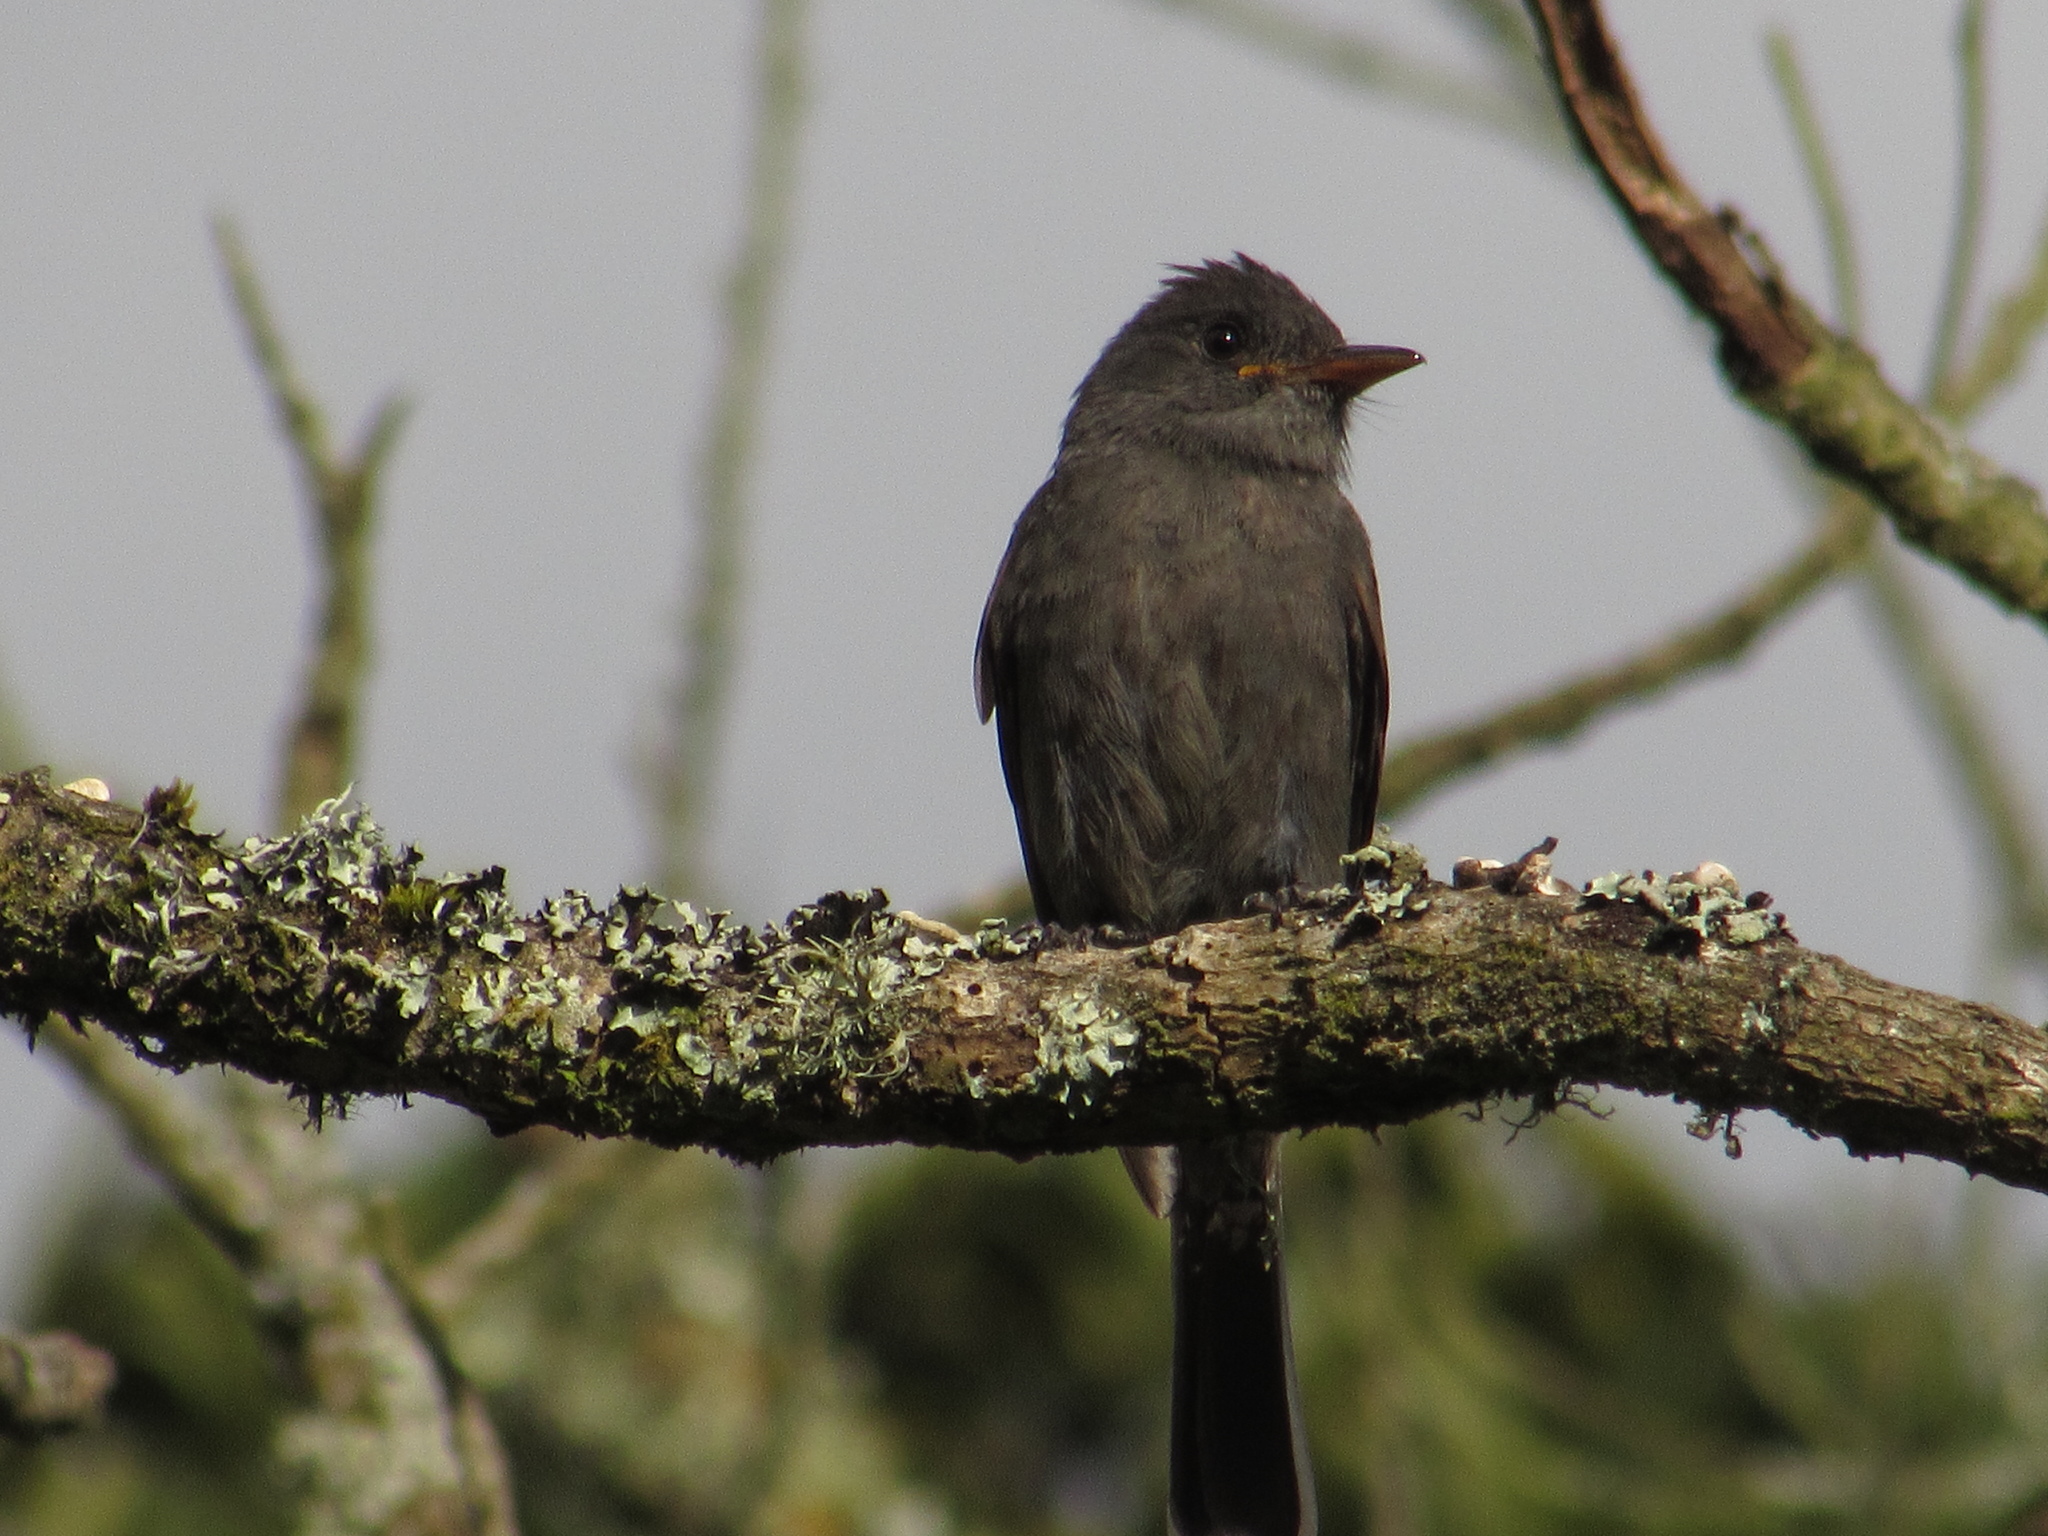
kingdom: Animalia
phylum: Chordata
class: Aves
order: Passeriformes
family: Tyrannidae
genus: Contopus
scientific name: Contopus fumigatus
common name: Smoke-colored pewee
